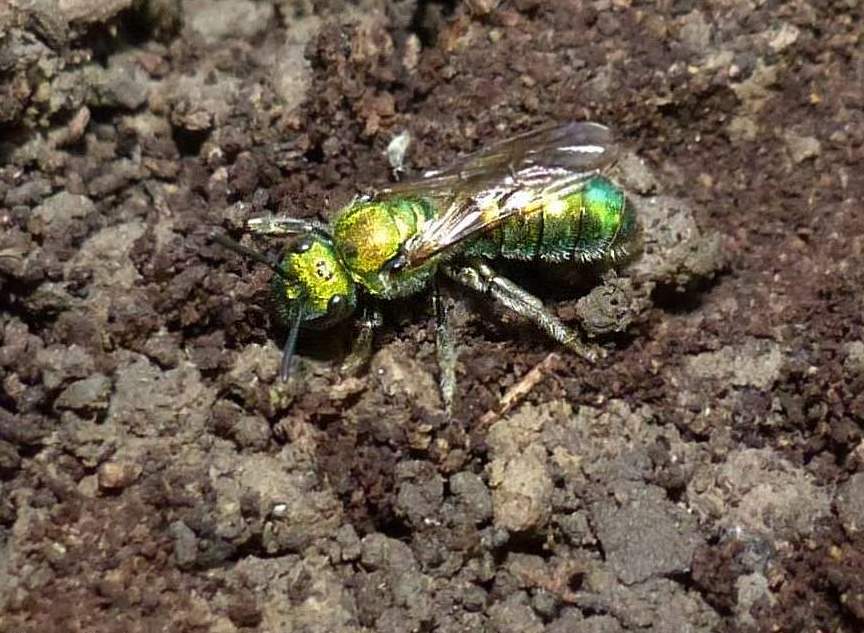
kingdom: Animalia
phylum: Arthropoda
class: Insecta
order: Hymenoptera
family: Halictidae
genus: Augochlora
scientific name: Augochlora pura
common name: Pure green sweat bee
